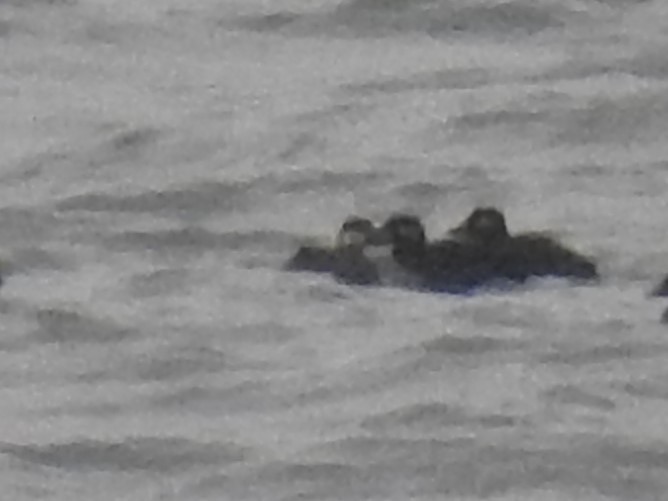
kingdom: Animalia
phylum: Chordata
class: Aves
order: Anseriformes
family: Anatidae
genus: Melanitta
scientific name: Melanitta americana
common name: Black scoter
